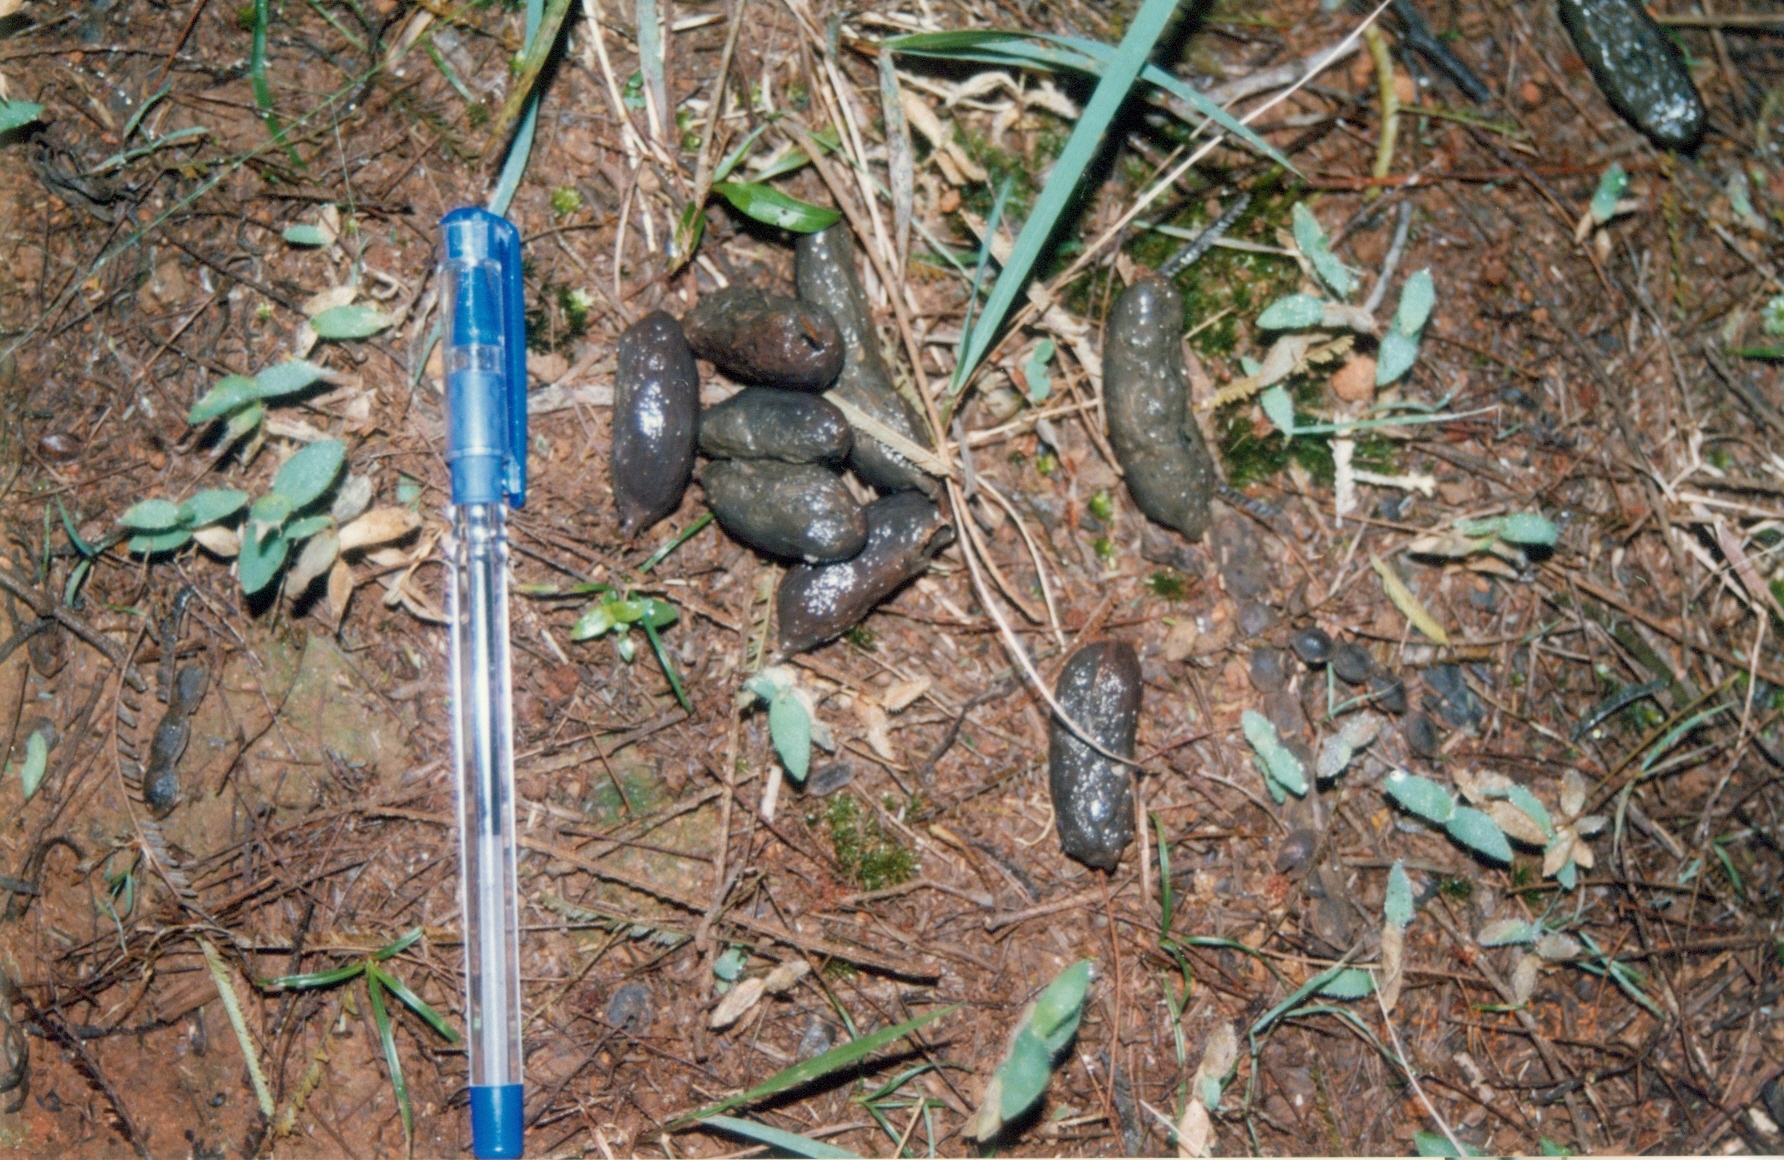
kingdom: Animalia
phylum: Chordata
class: Mammalia
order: Rodentia
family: Hystricidae
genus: Hystrix
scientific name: Hystrix indica
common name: Indian crested porcupine
